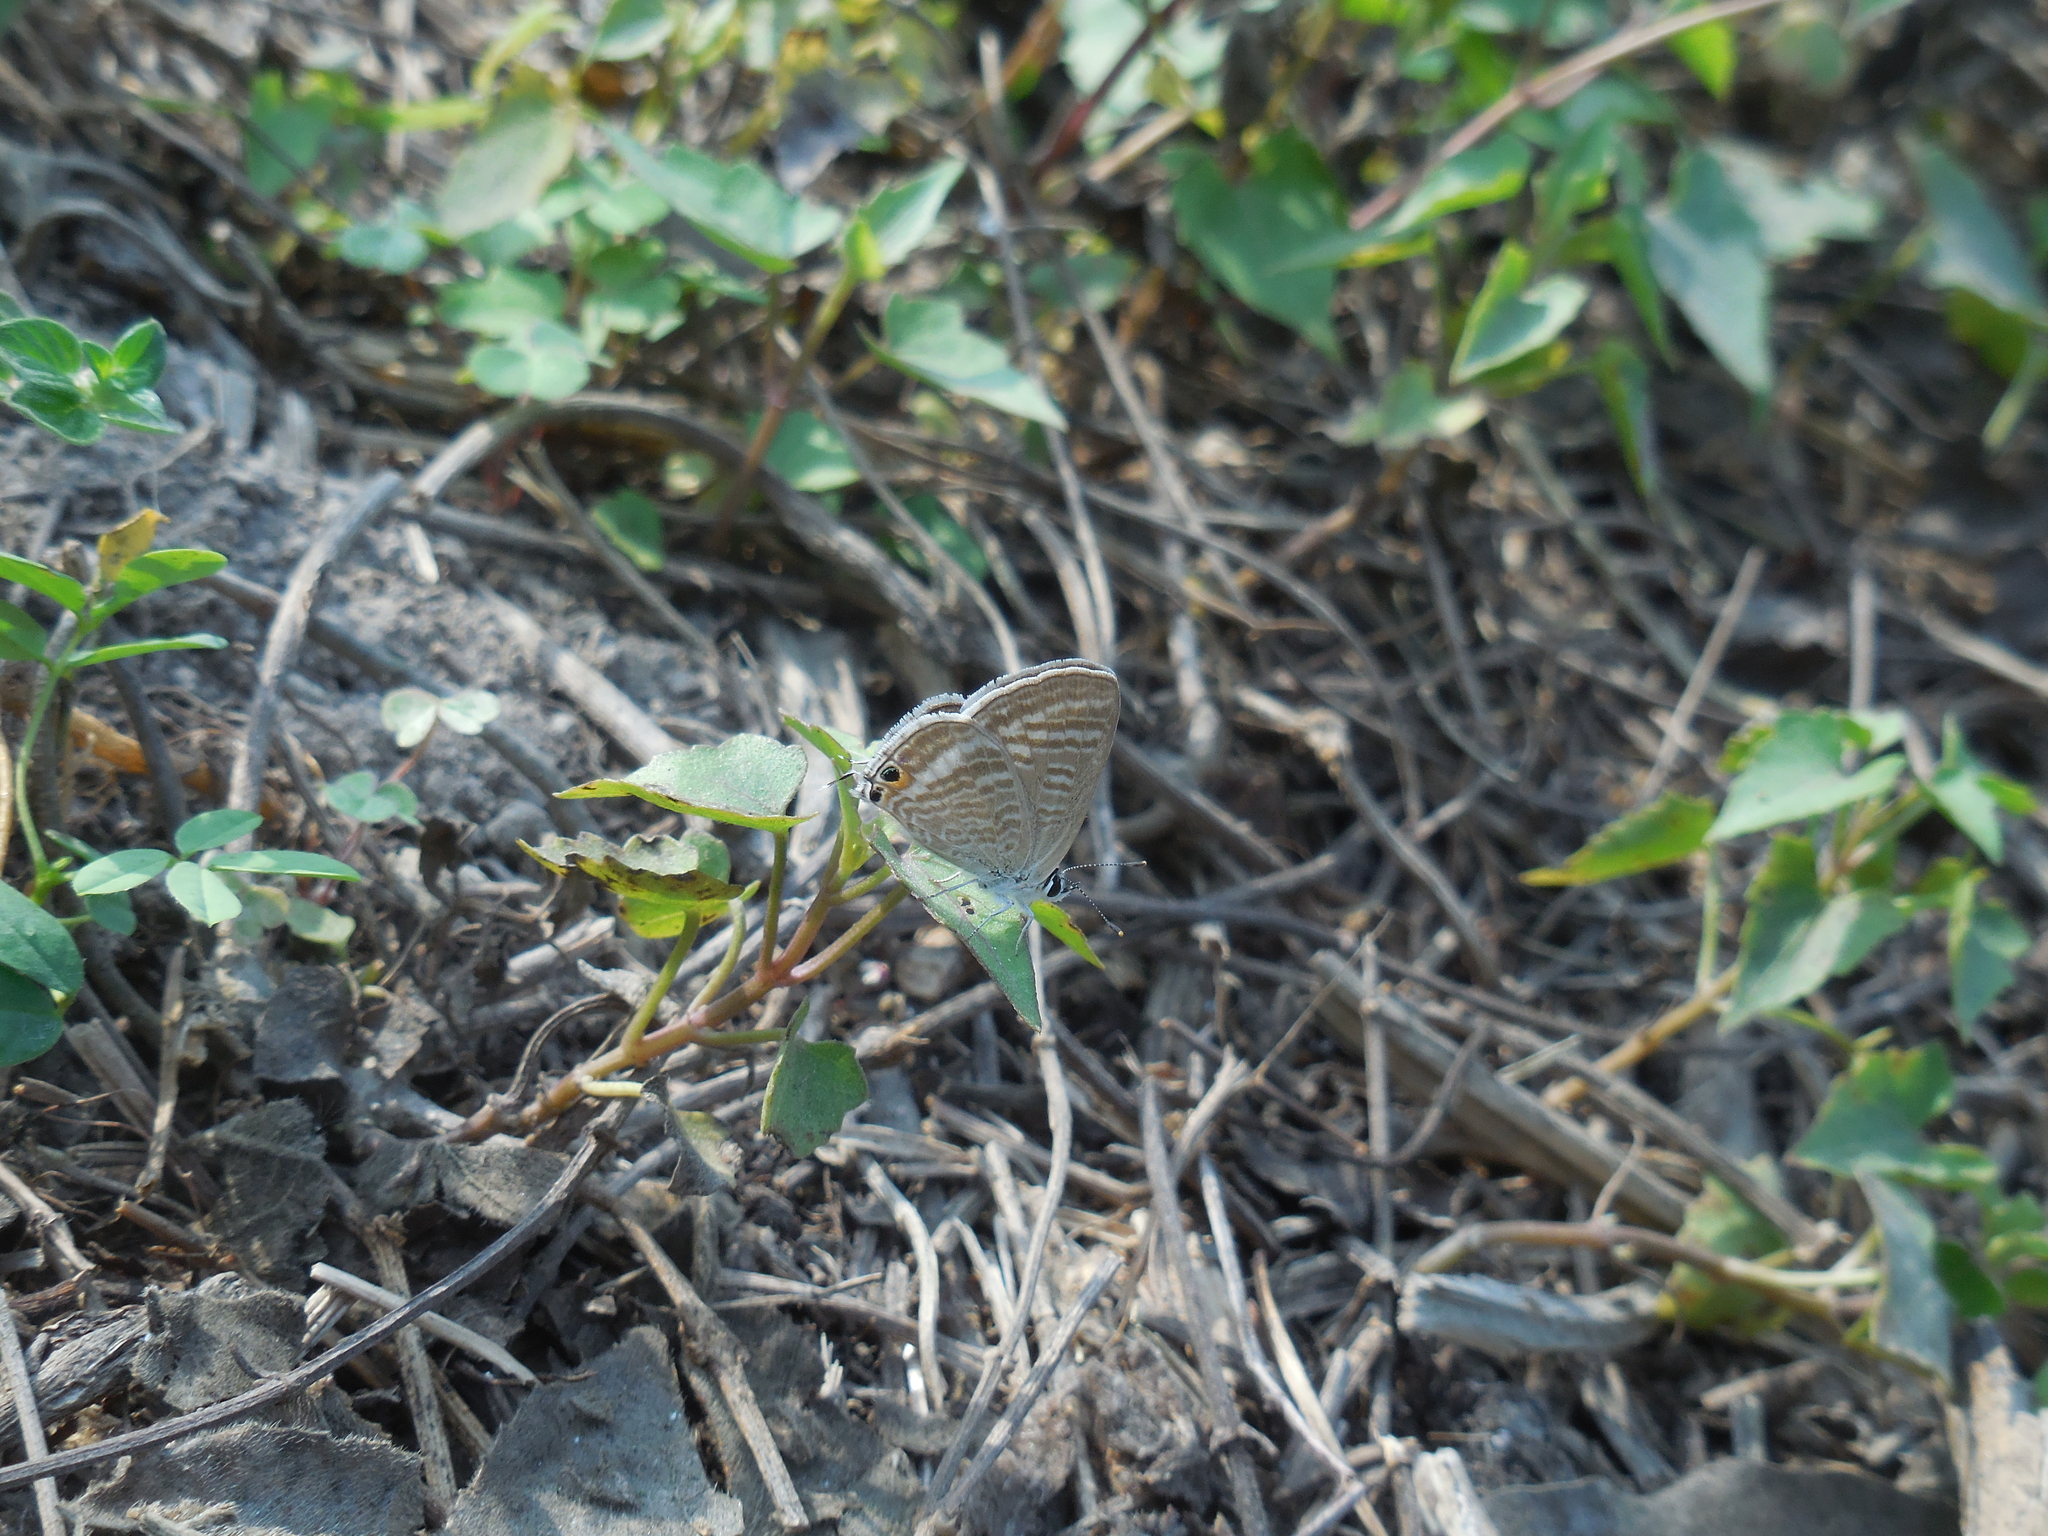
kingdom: Animalia
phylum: Arthropoda
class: Insecta
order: Lepidoptera
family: Lycaenidae
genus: Lampides
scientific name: Lampides boeticus
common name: Long-tailed blue
